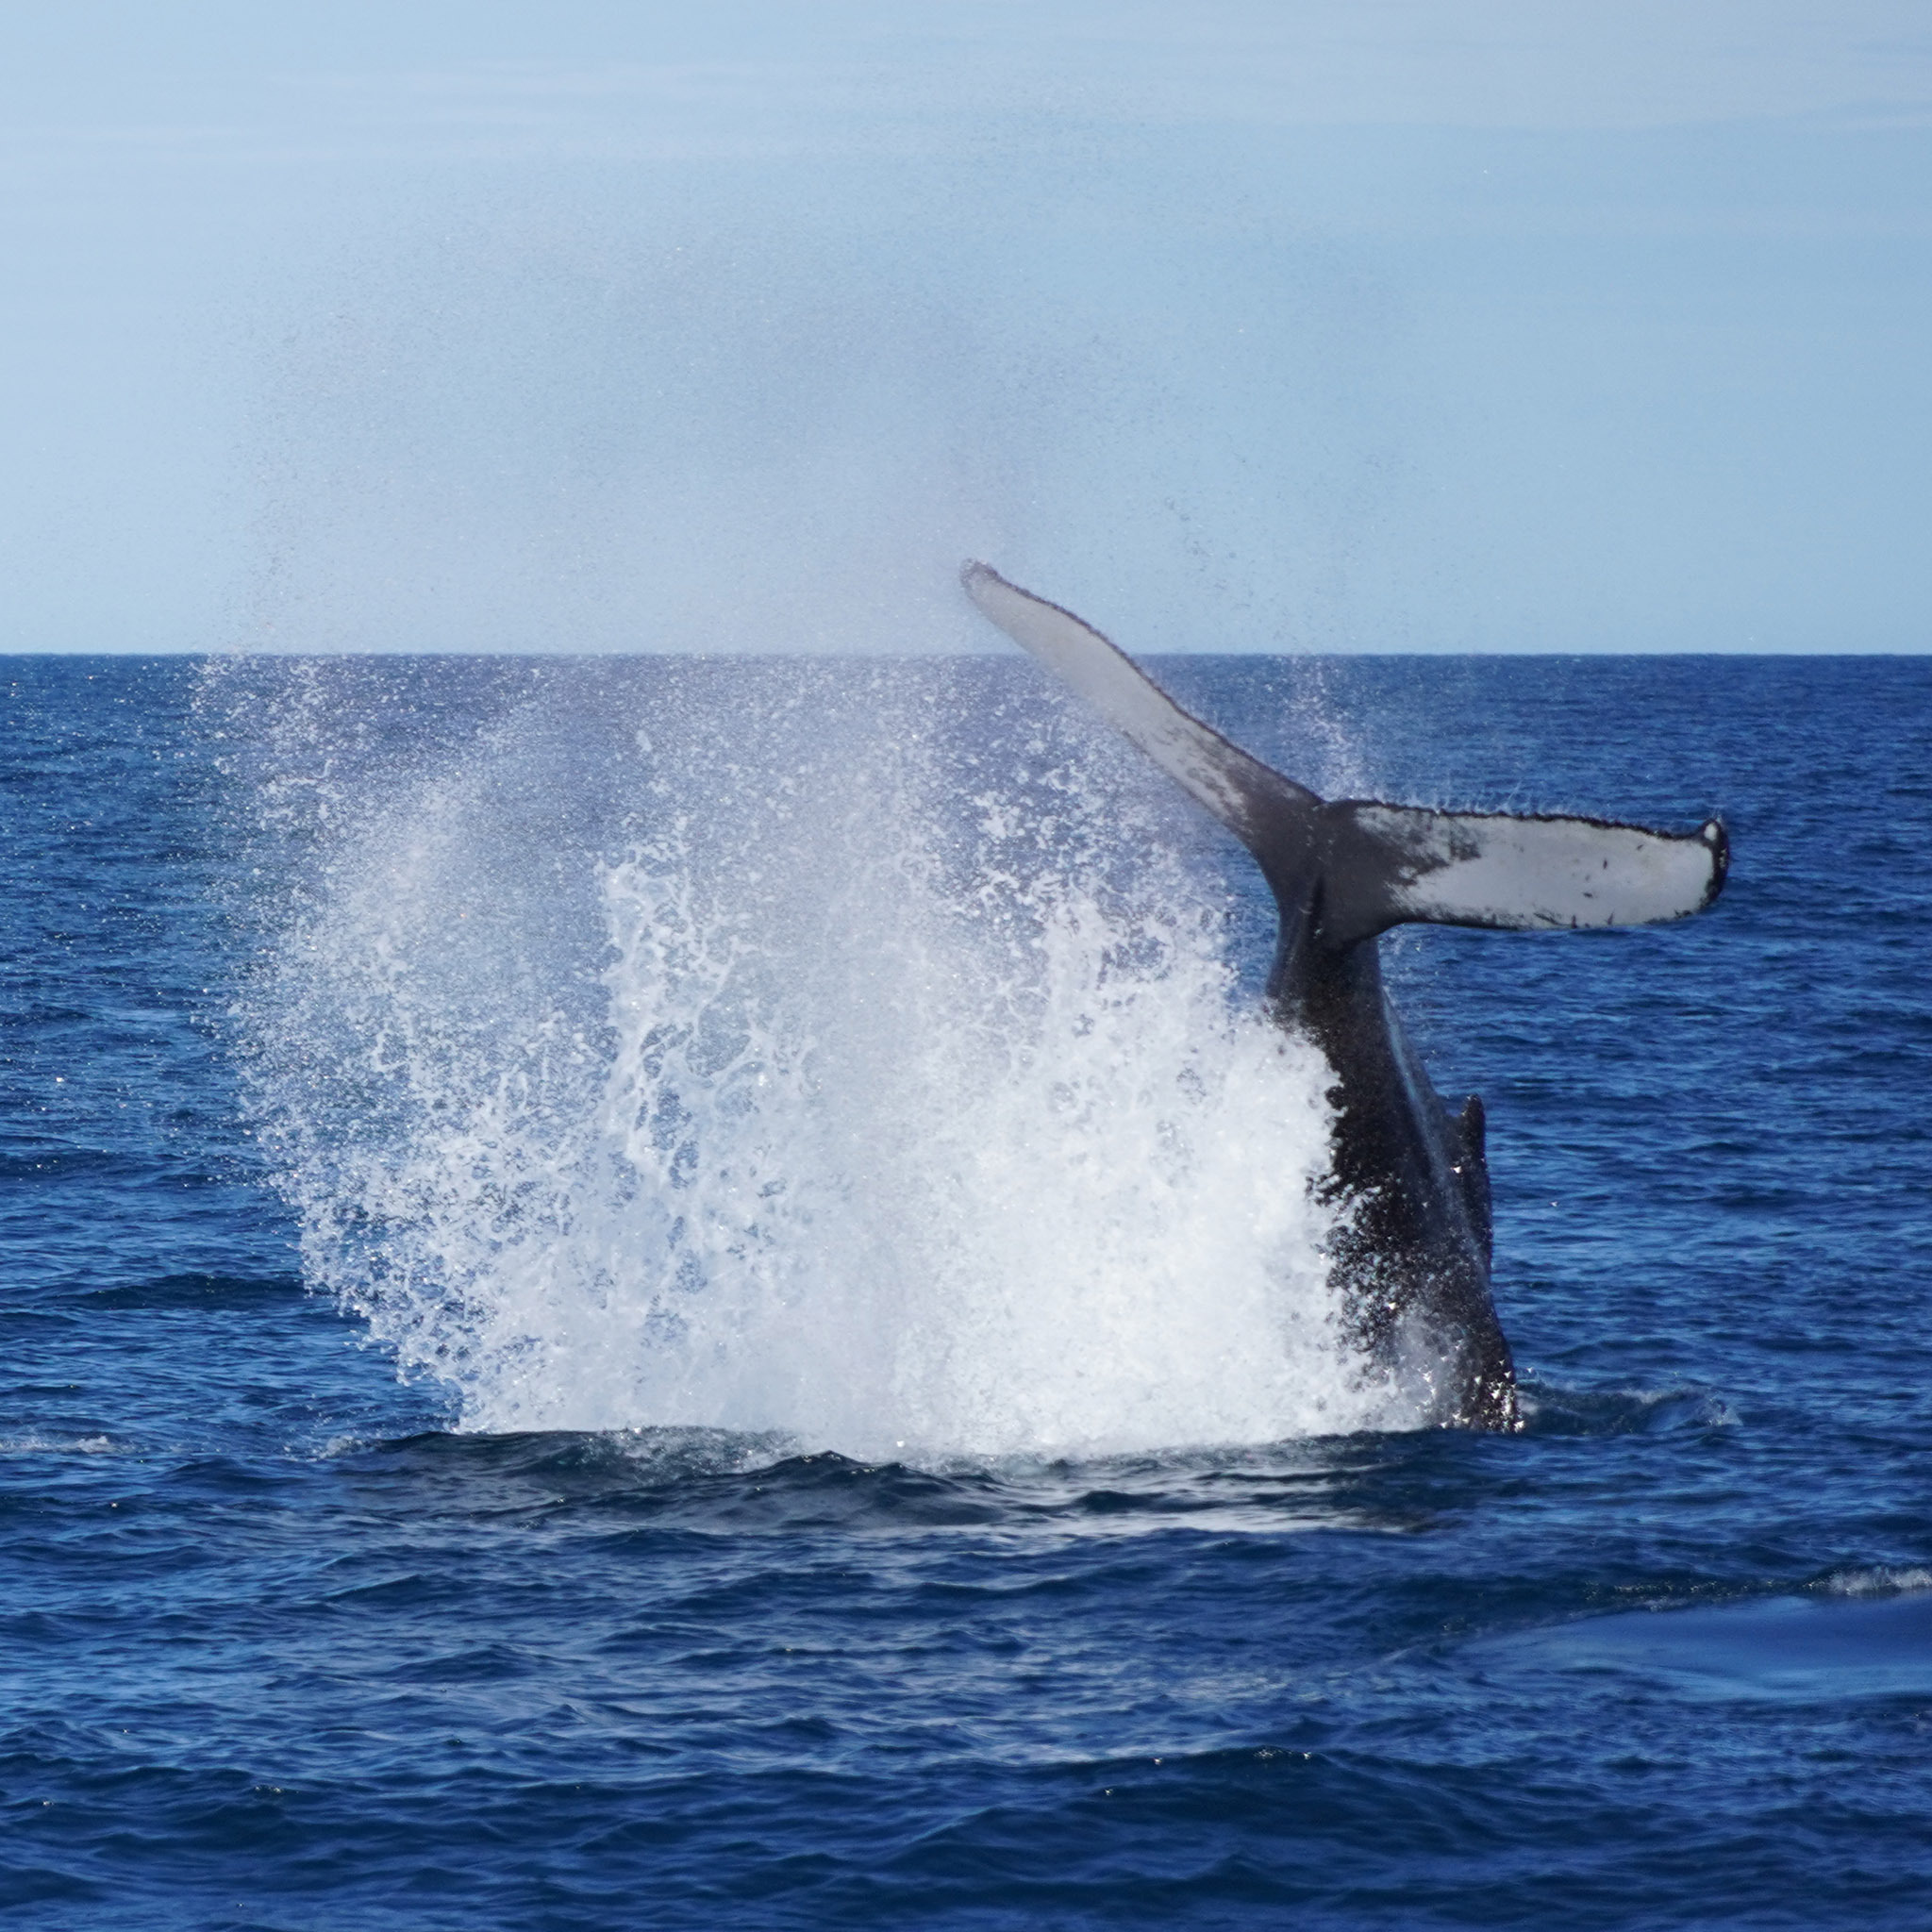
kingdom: Animalia
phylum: Chordata
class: Mammalia
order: Cetacea
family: Balaenopteridae
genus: Megaptera
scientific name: Megaptera novaeangliae
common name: Humpback whale
